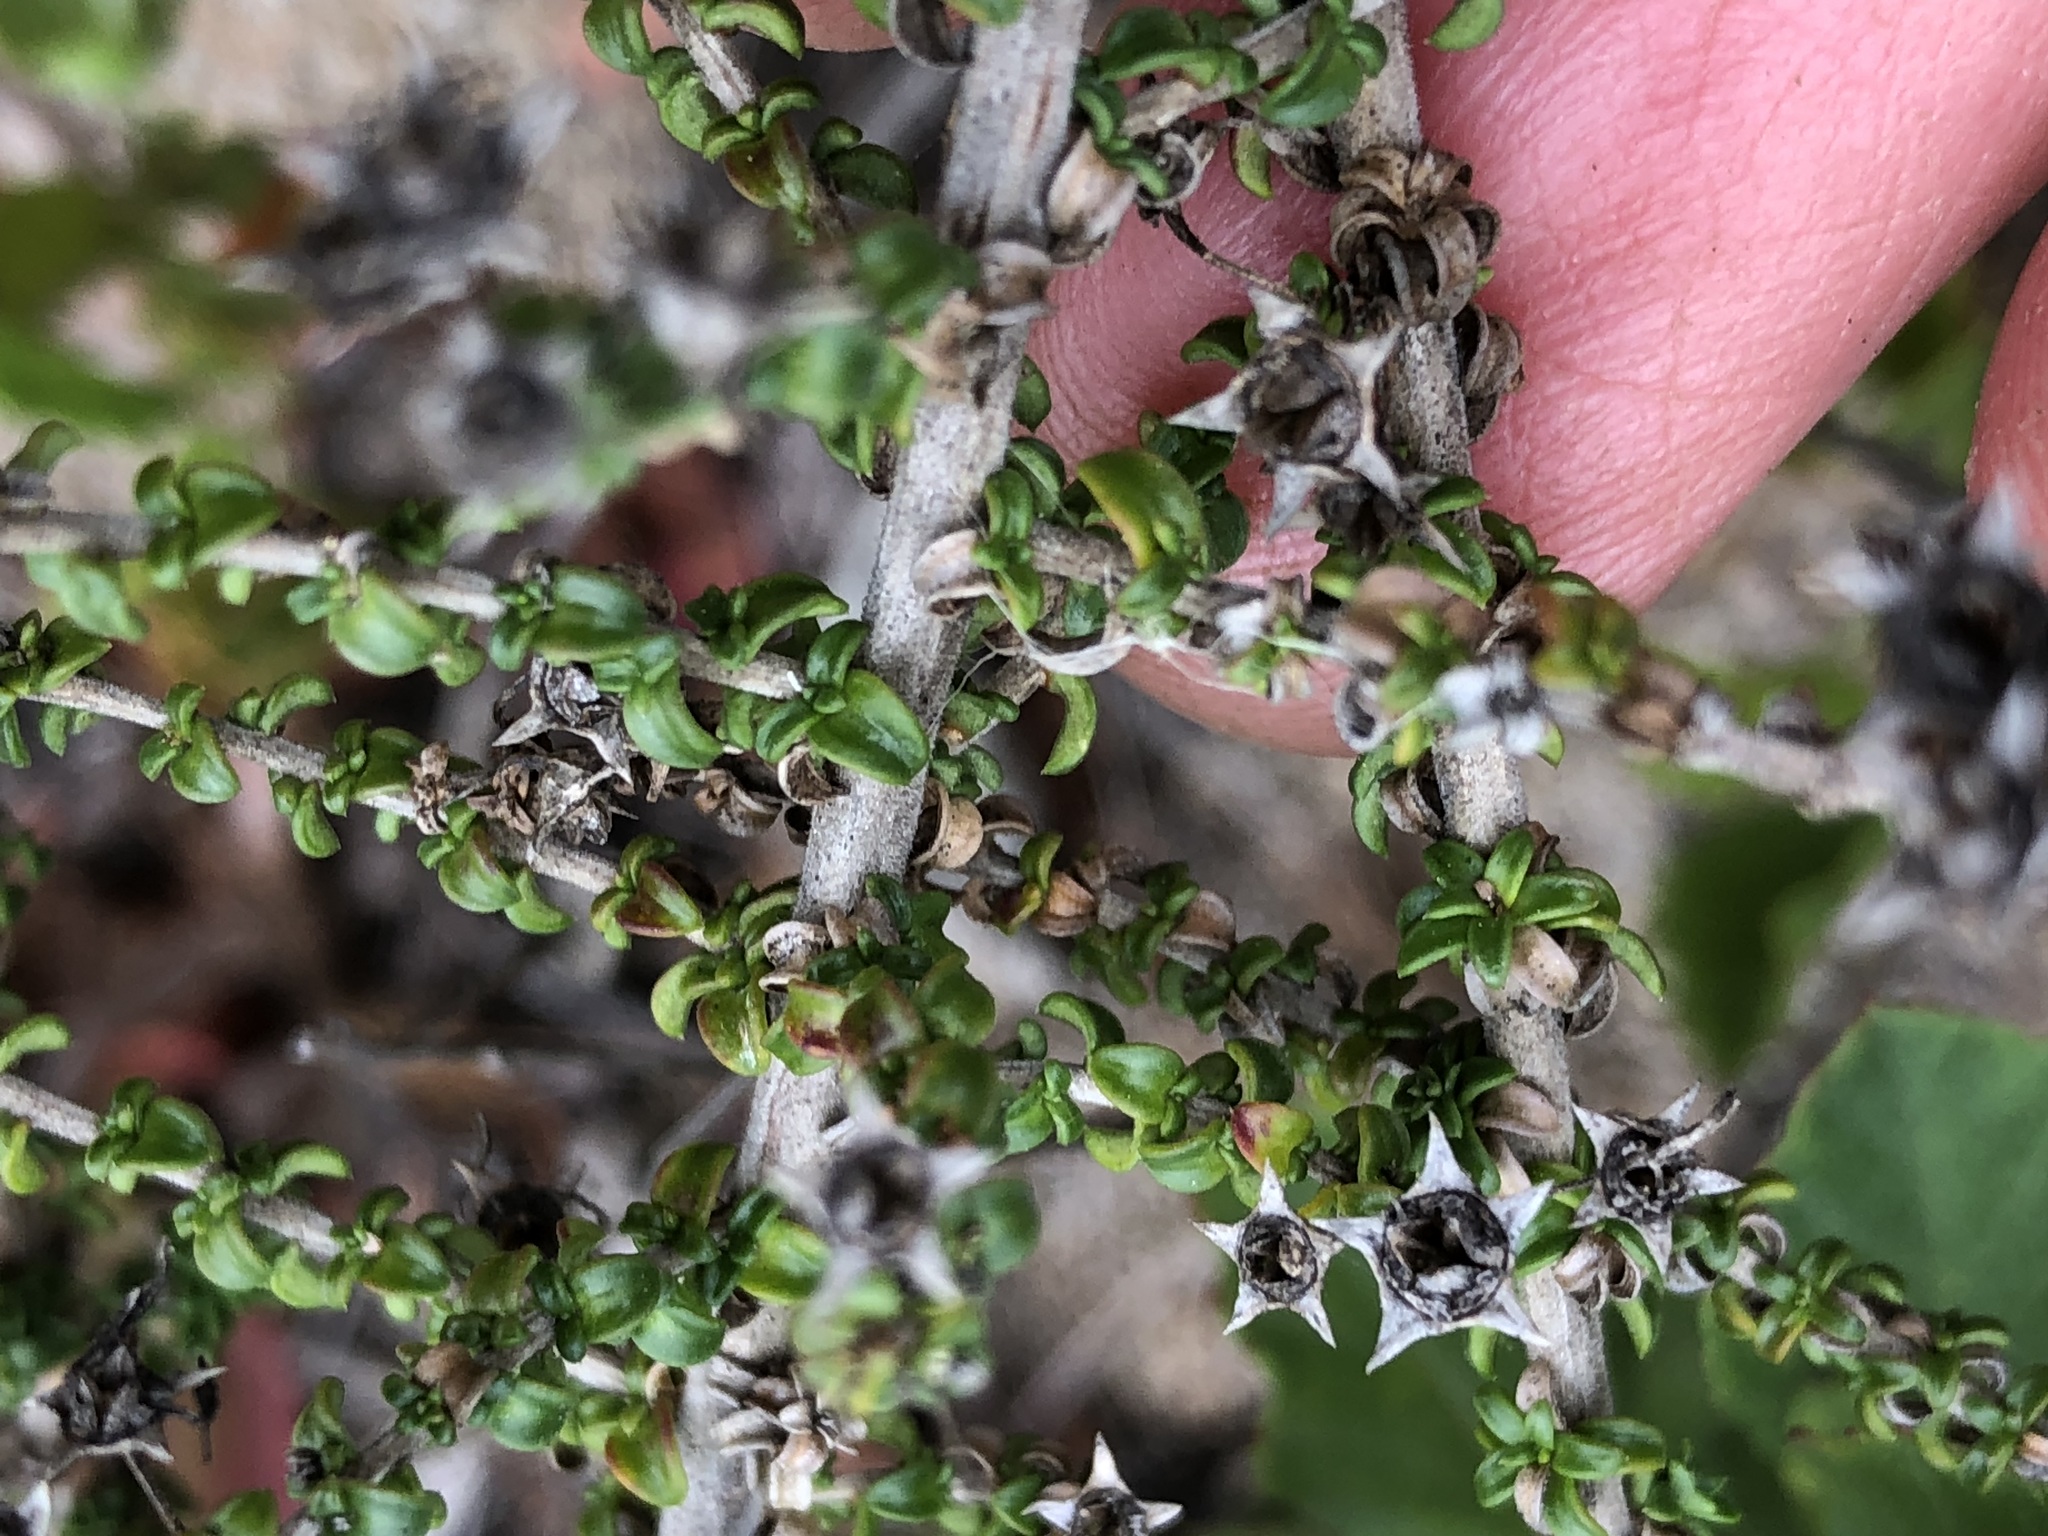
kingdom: Plantae
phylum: Tracheophyta
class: Magnoliopsida
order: Asterales
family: Campanulaceae
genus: Wahlenbergia
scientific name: Wahlenbergia tenella
